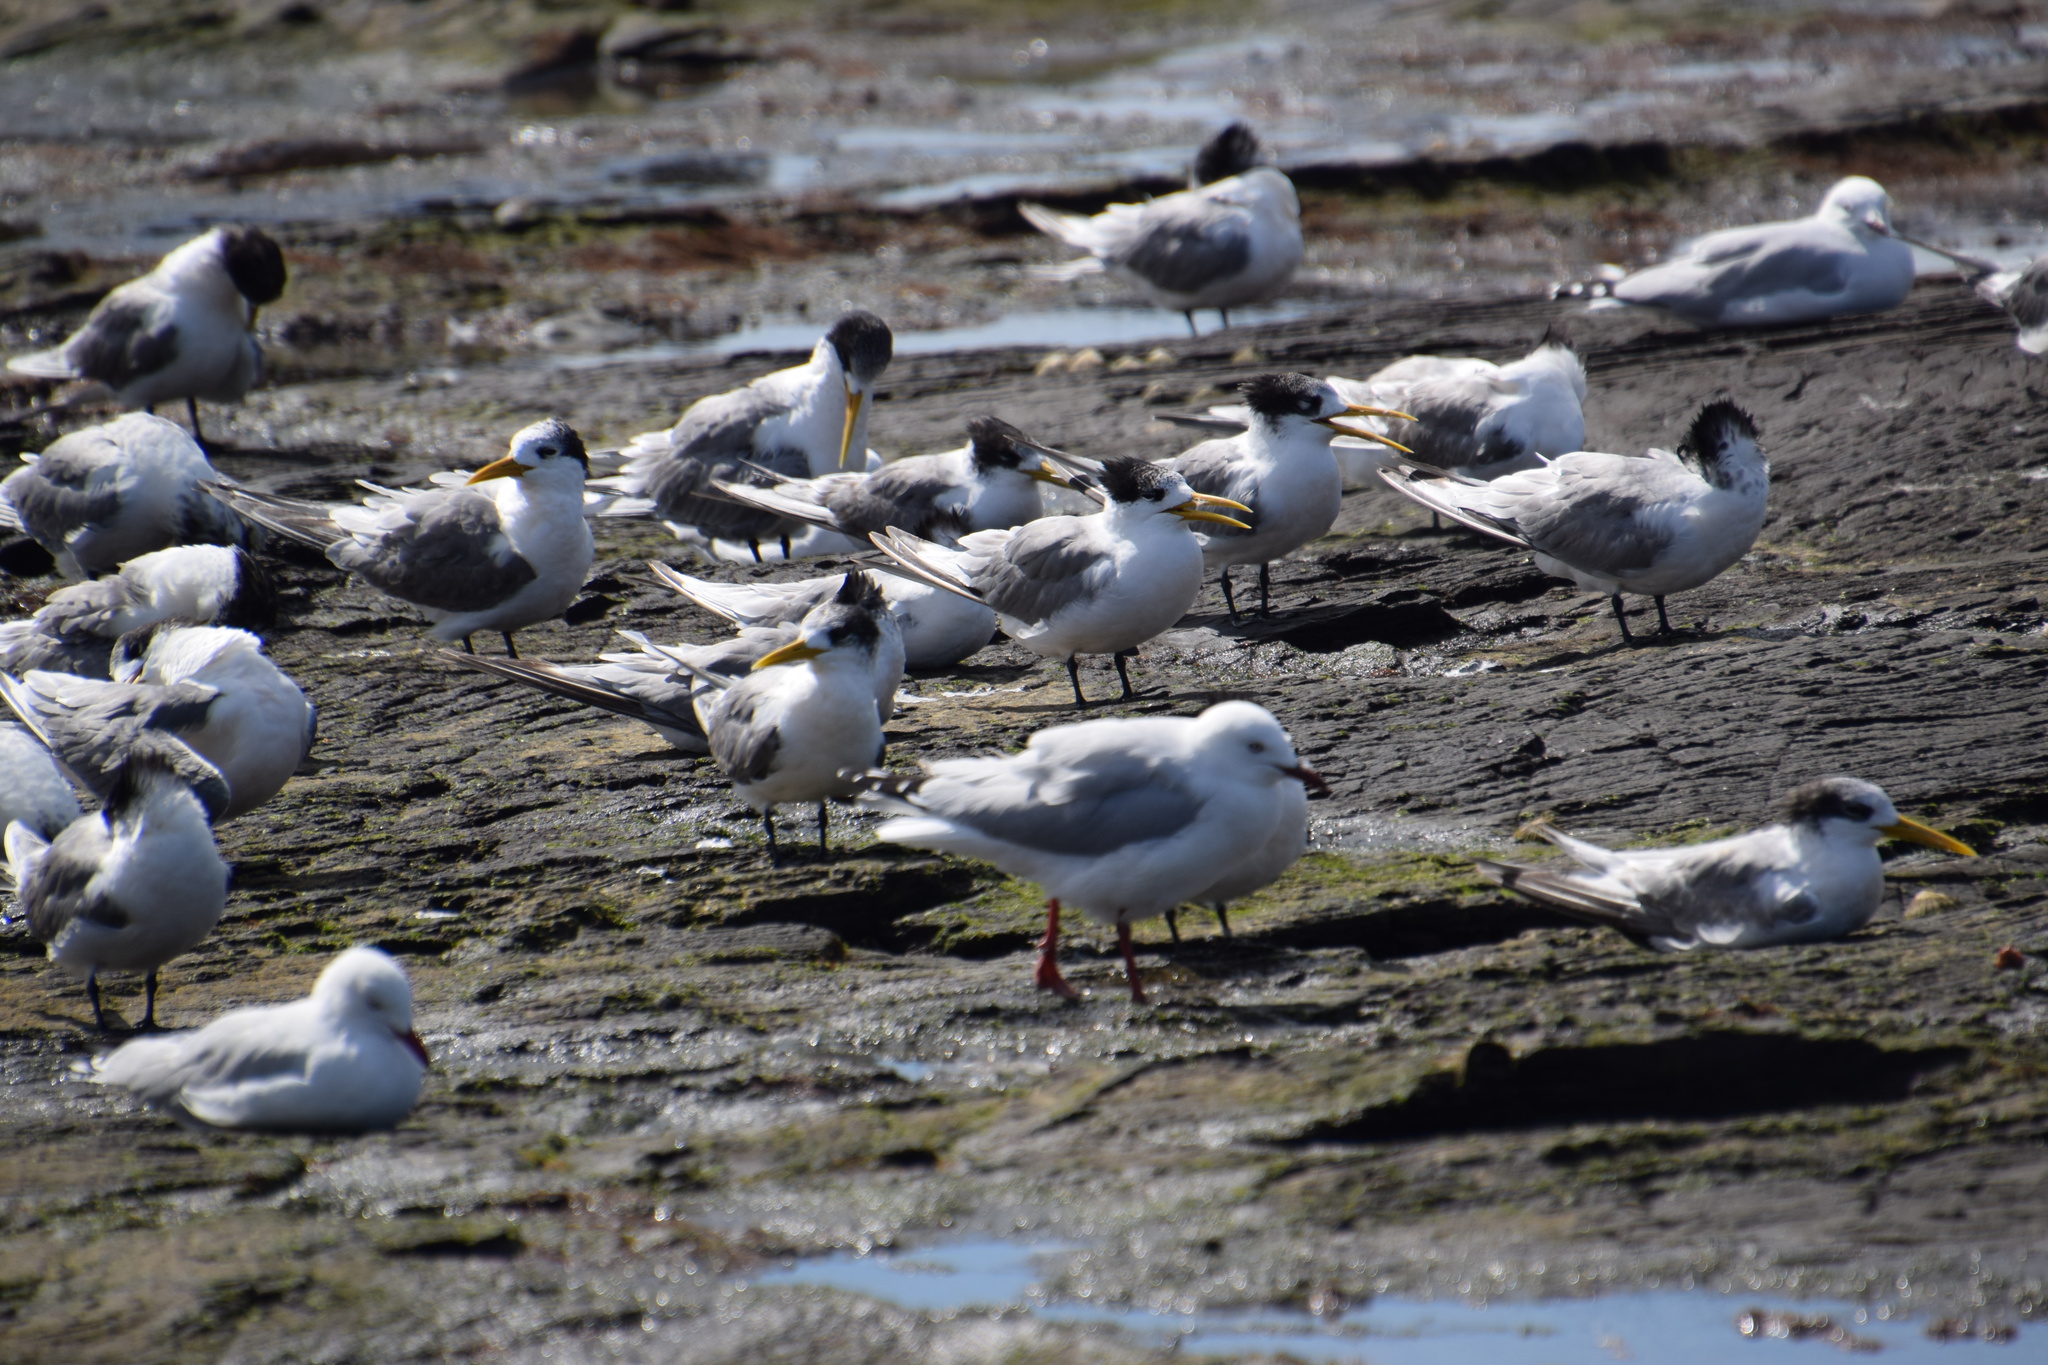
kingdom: Animalia
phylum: Chordata
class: Aves
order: Charadriiformes
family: Laridae
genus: Thalasseus
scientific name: Thalasseus bergii
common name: Greater crested tern
